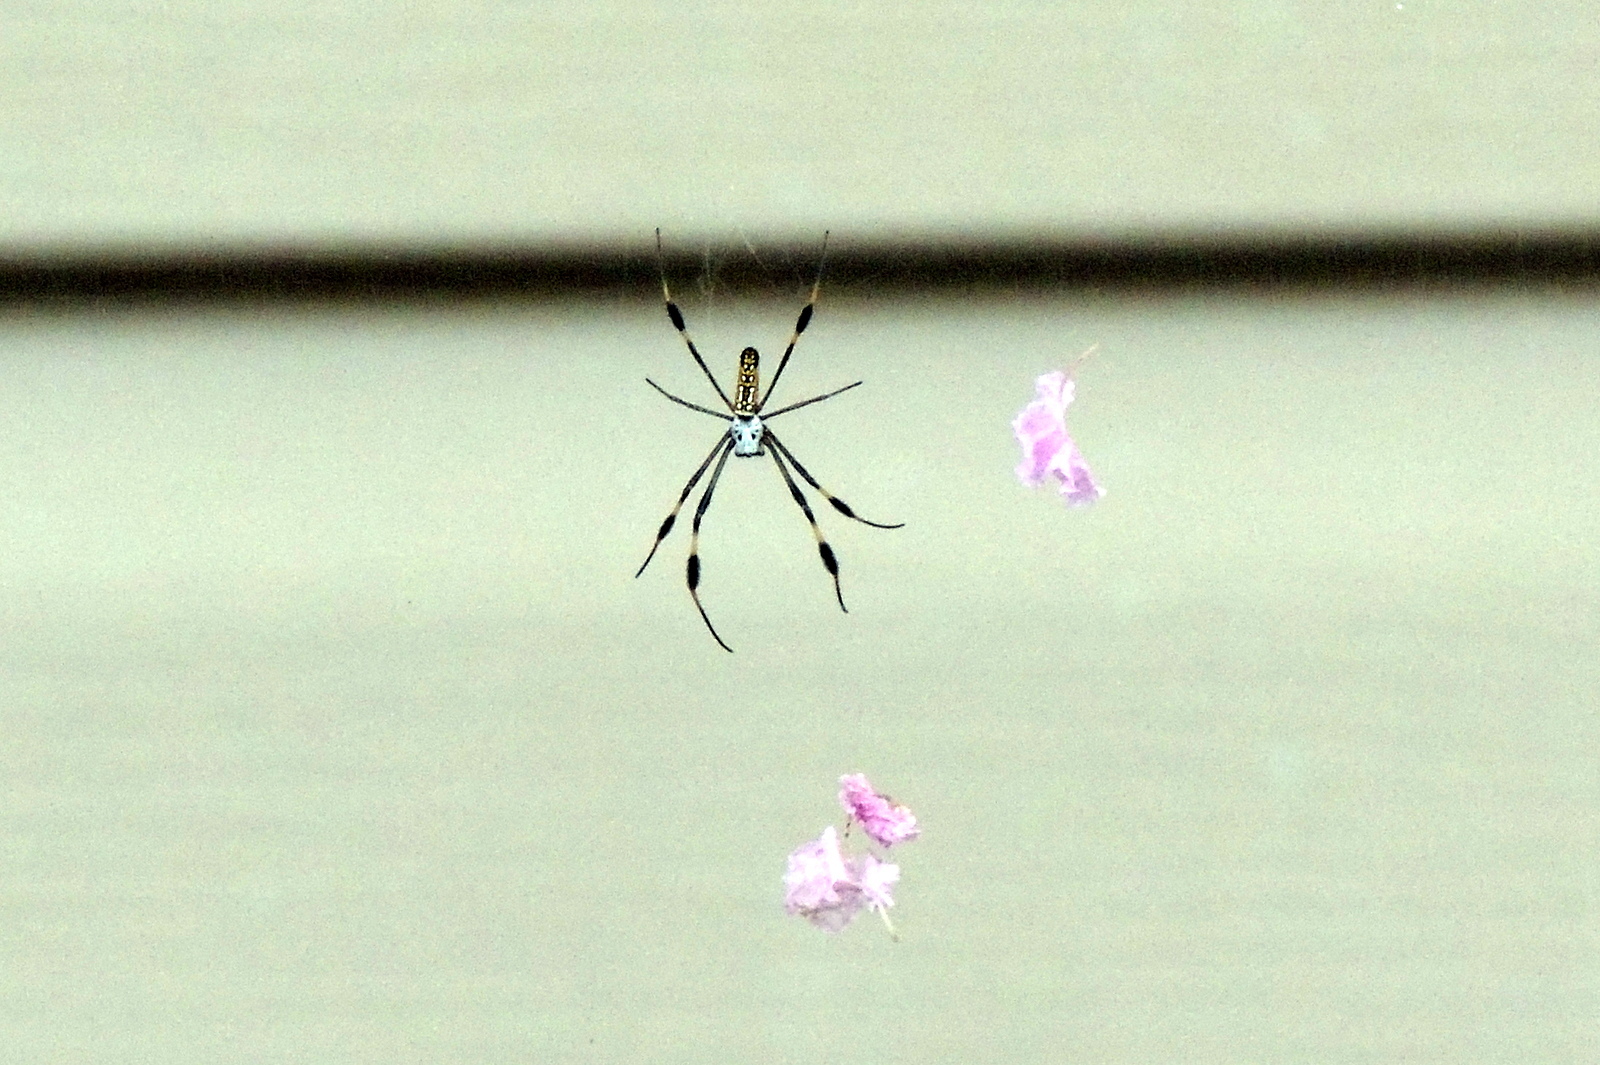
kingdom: Animalia
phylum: Arthropoda
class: Arachnida
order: Araneae
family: Araneidae
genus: Trichonephila
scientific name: Trichonephila clavipes
